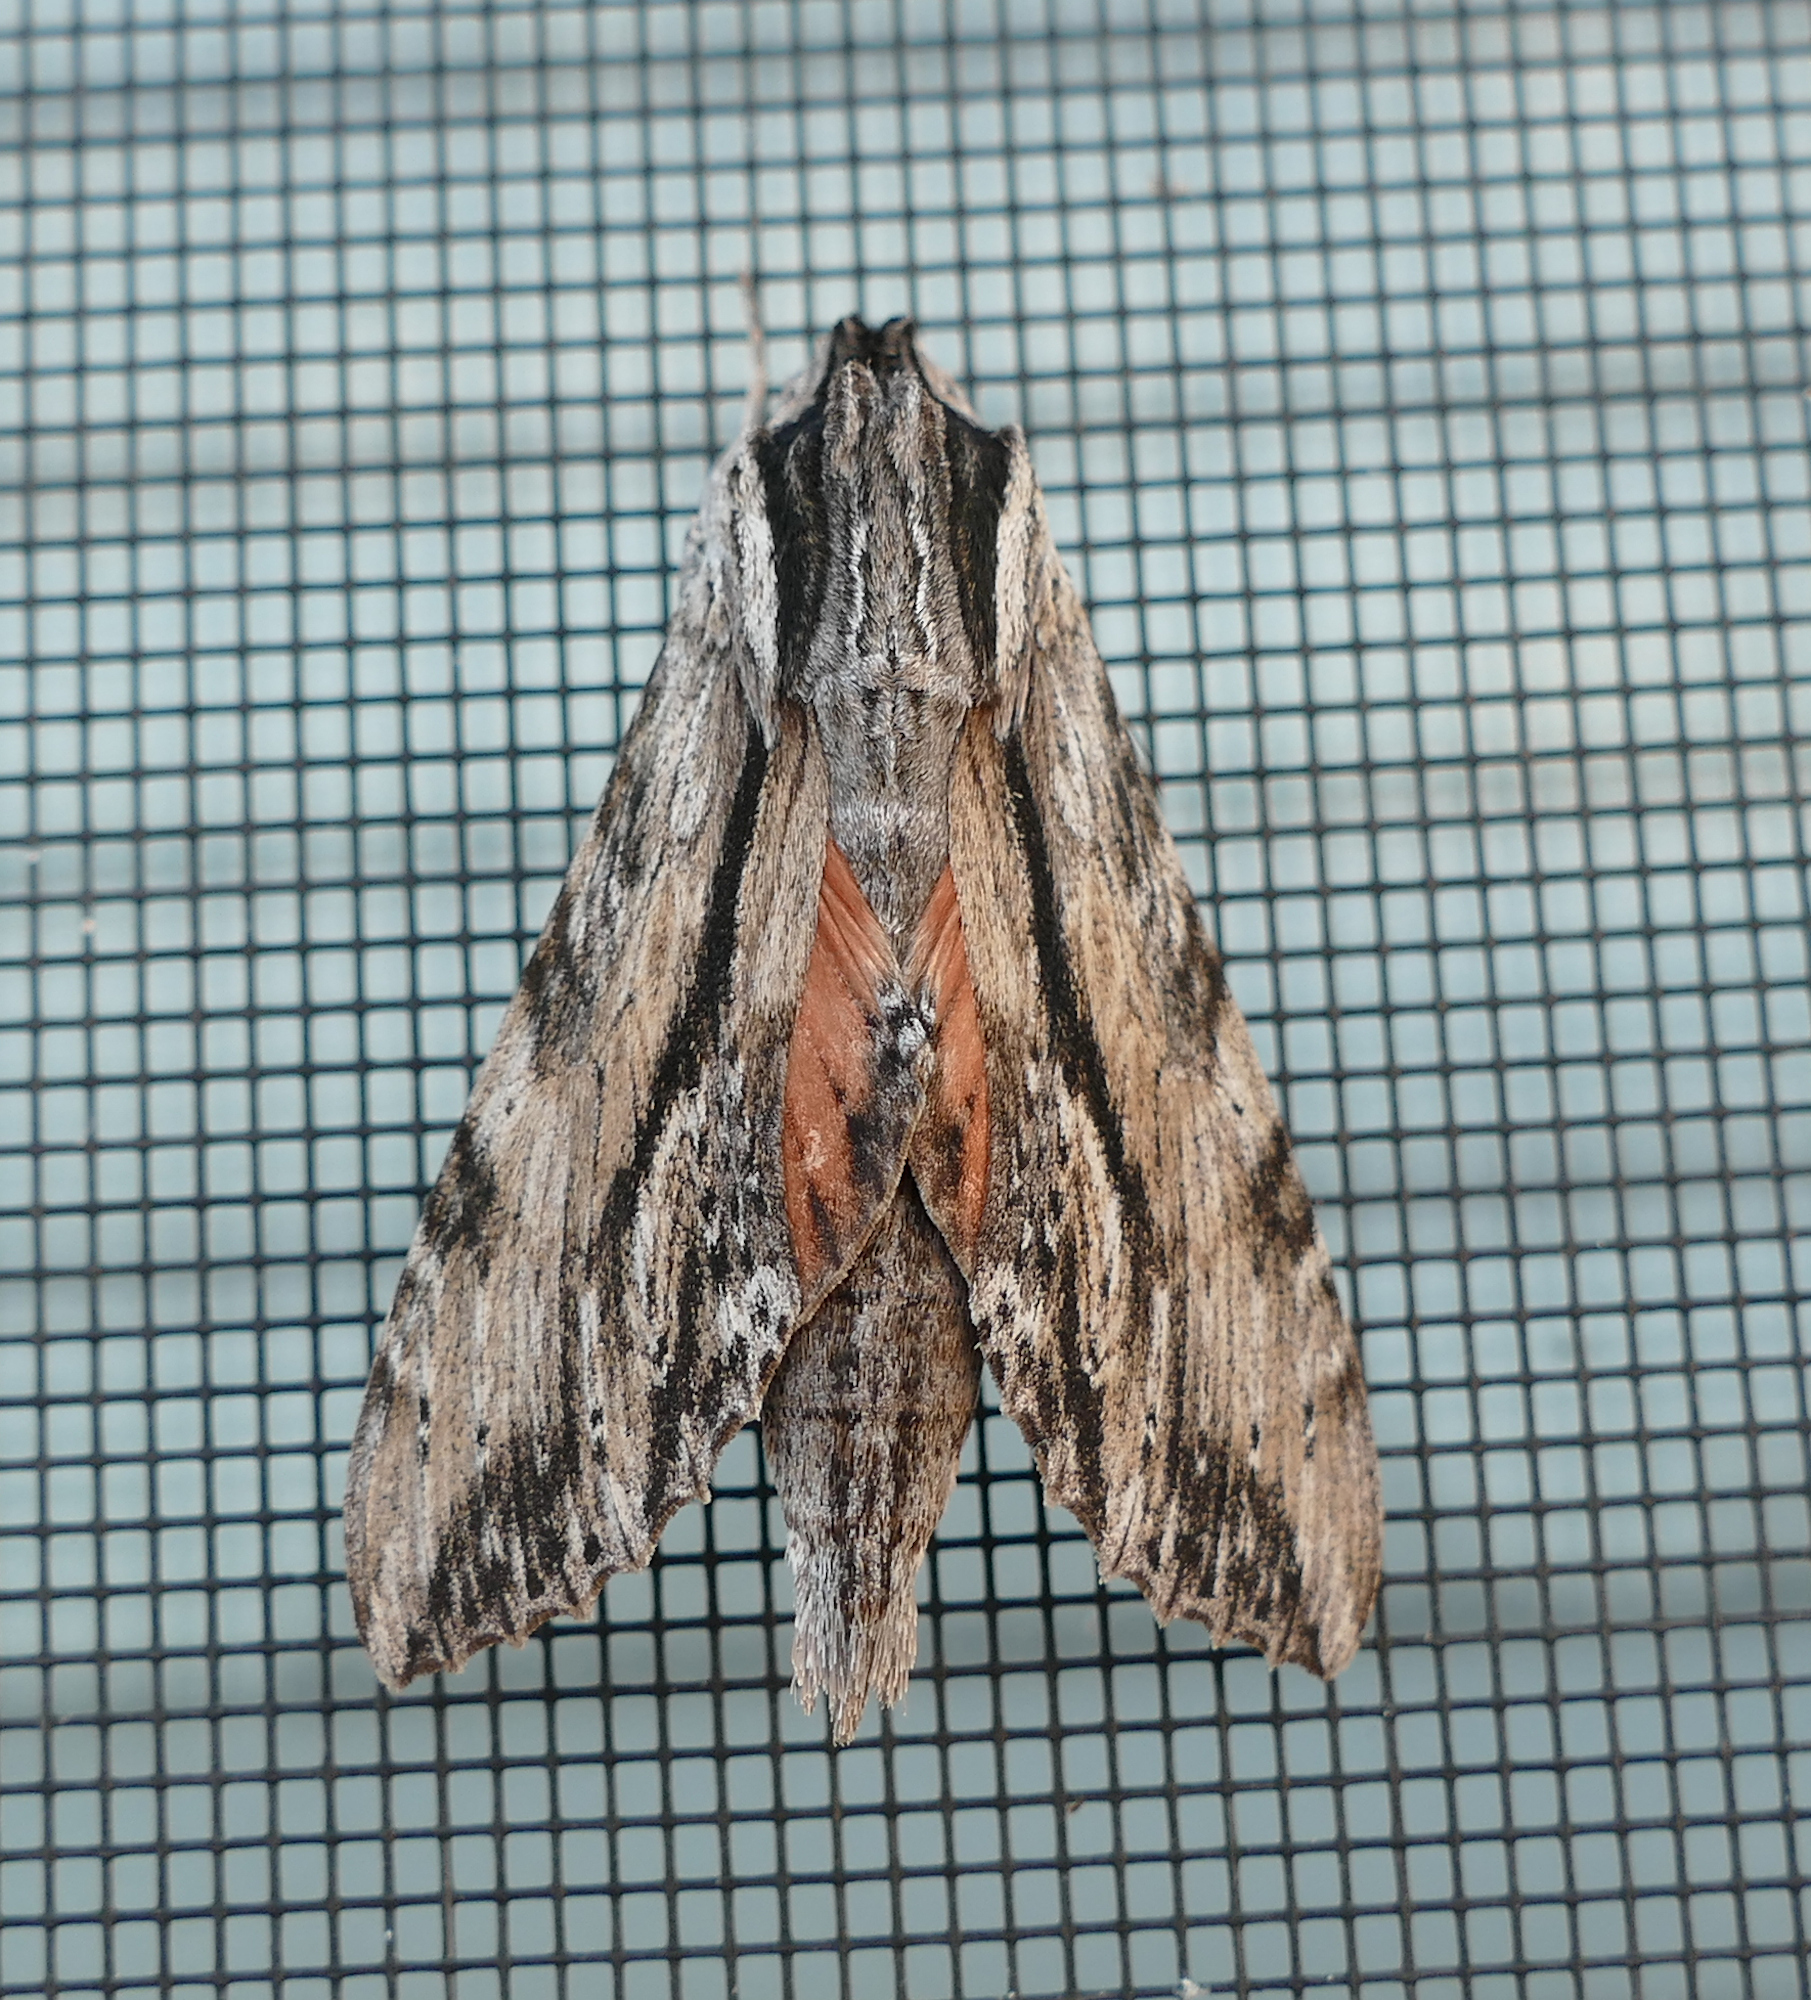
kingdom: Animalia
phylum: Arthropoda
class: Insecta
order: Lepidoptera
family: Sphingidae
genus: Erinnyis
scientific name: Erinnyis obscura
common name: Obscure sphinx
